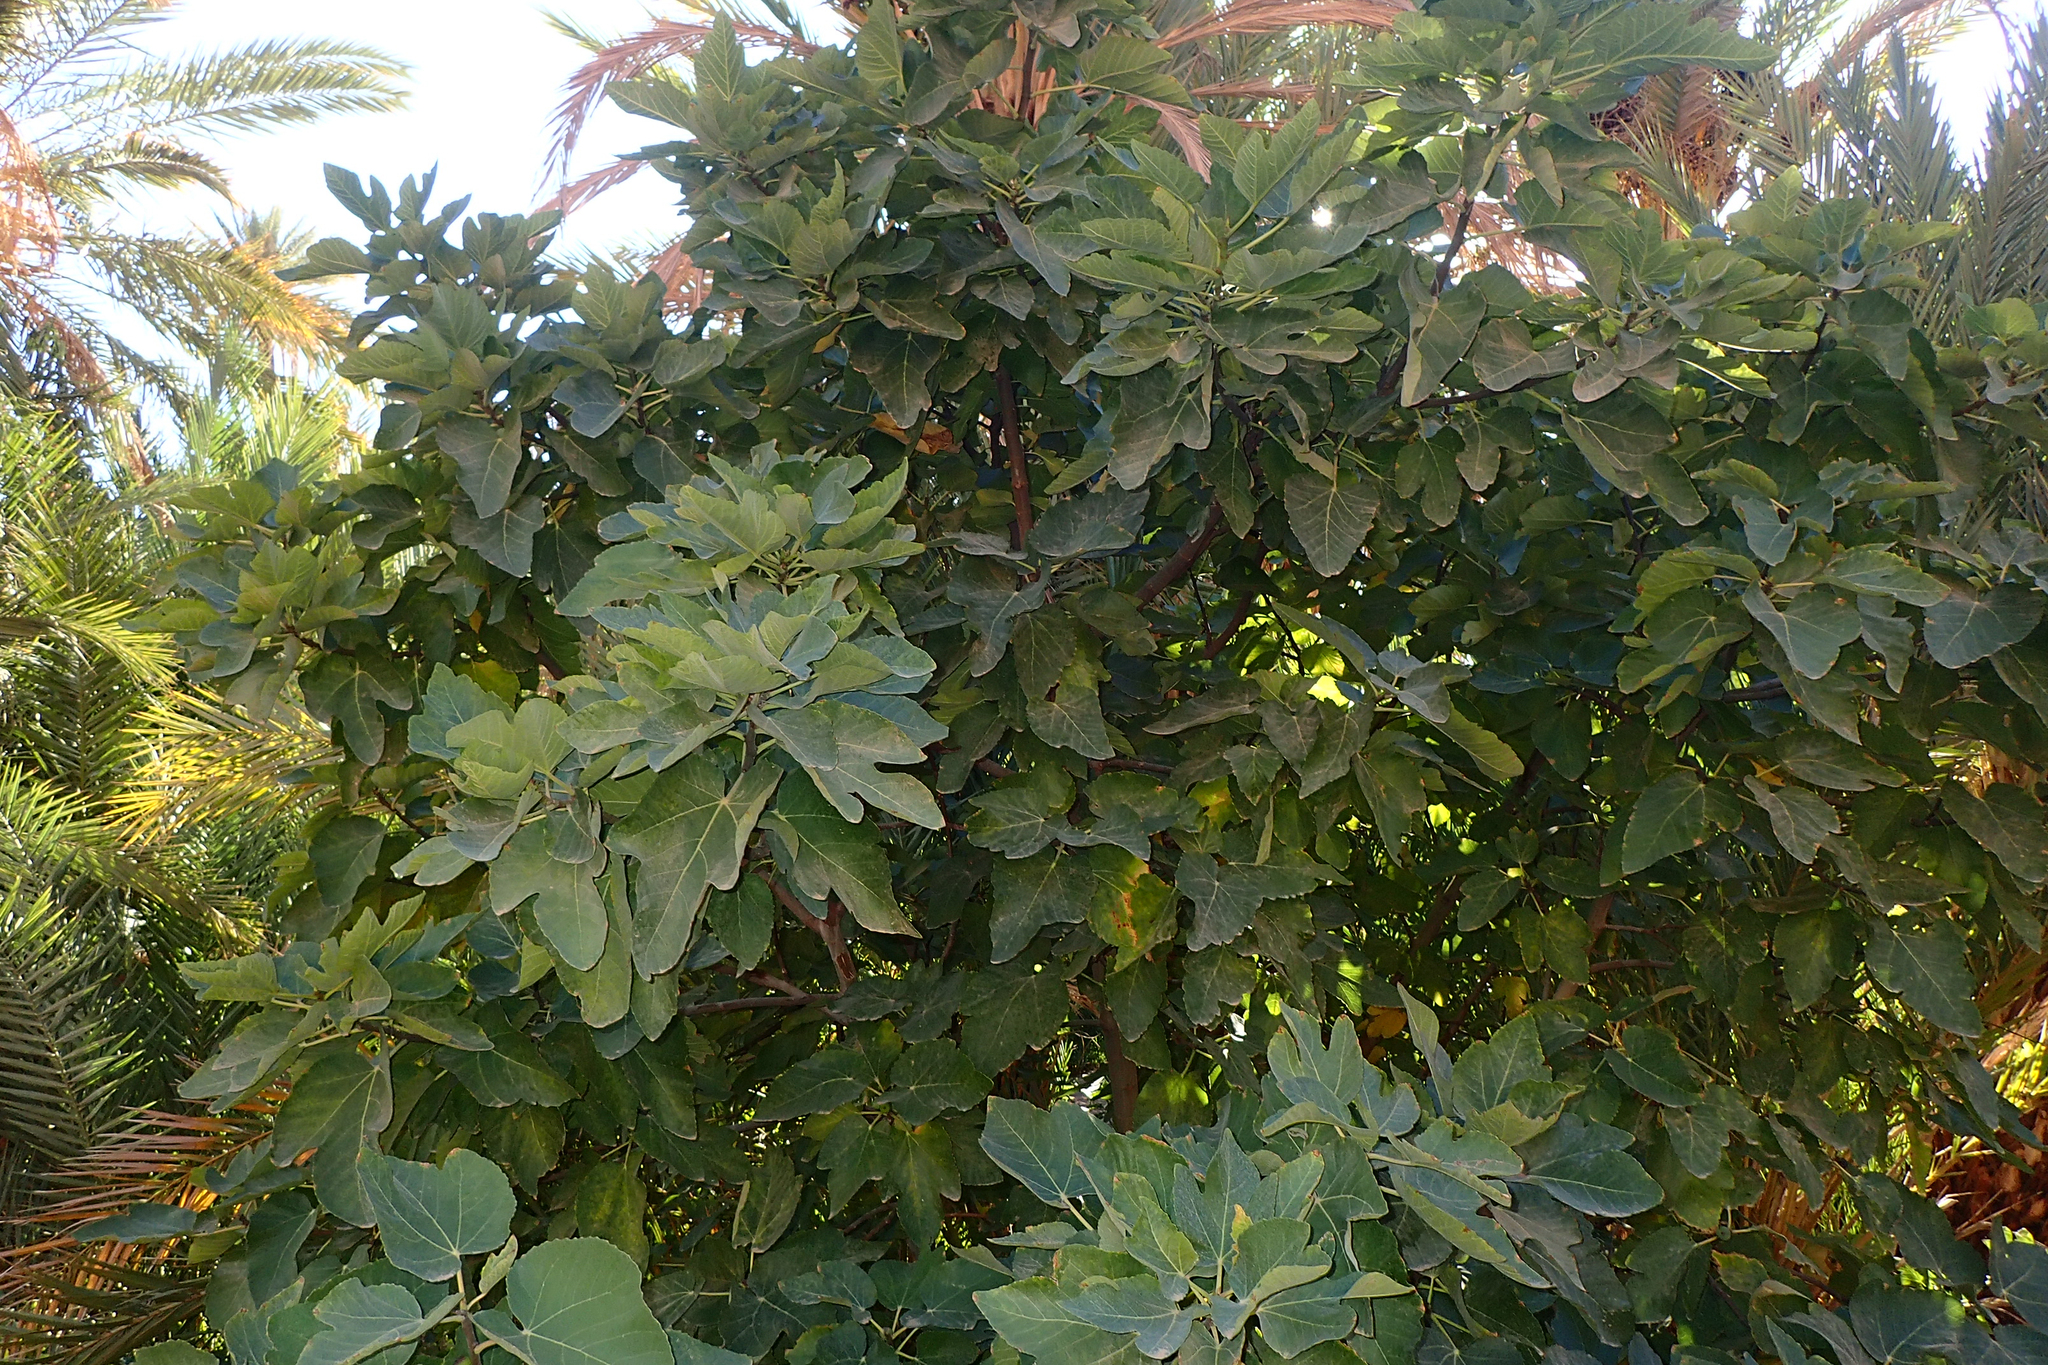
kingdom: Plantae
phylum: Tracheophyta
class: Magnoliopsida
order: Rosales
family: Moraceae
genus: Ficus
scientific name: Ficus carica
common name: Fig
